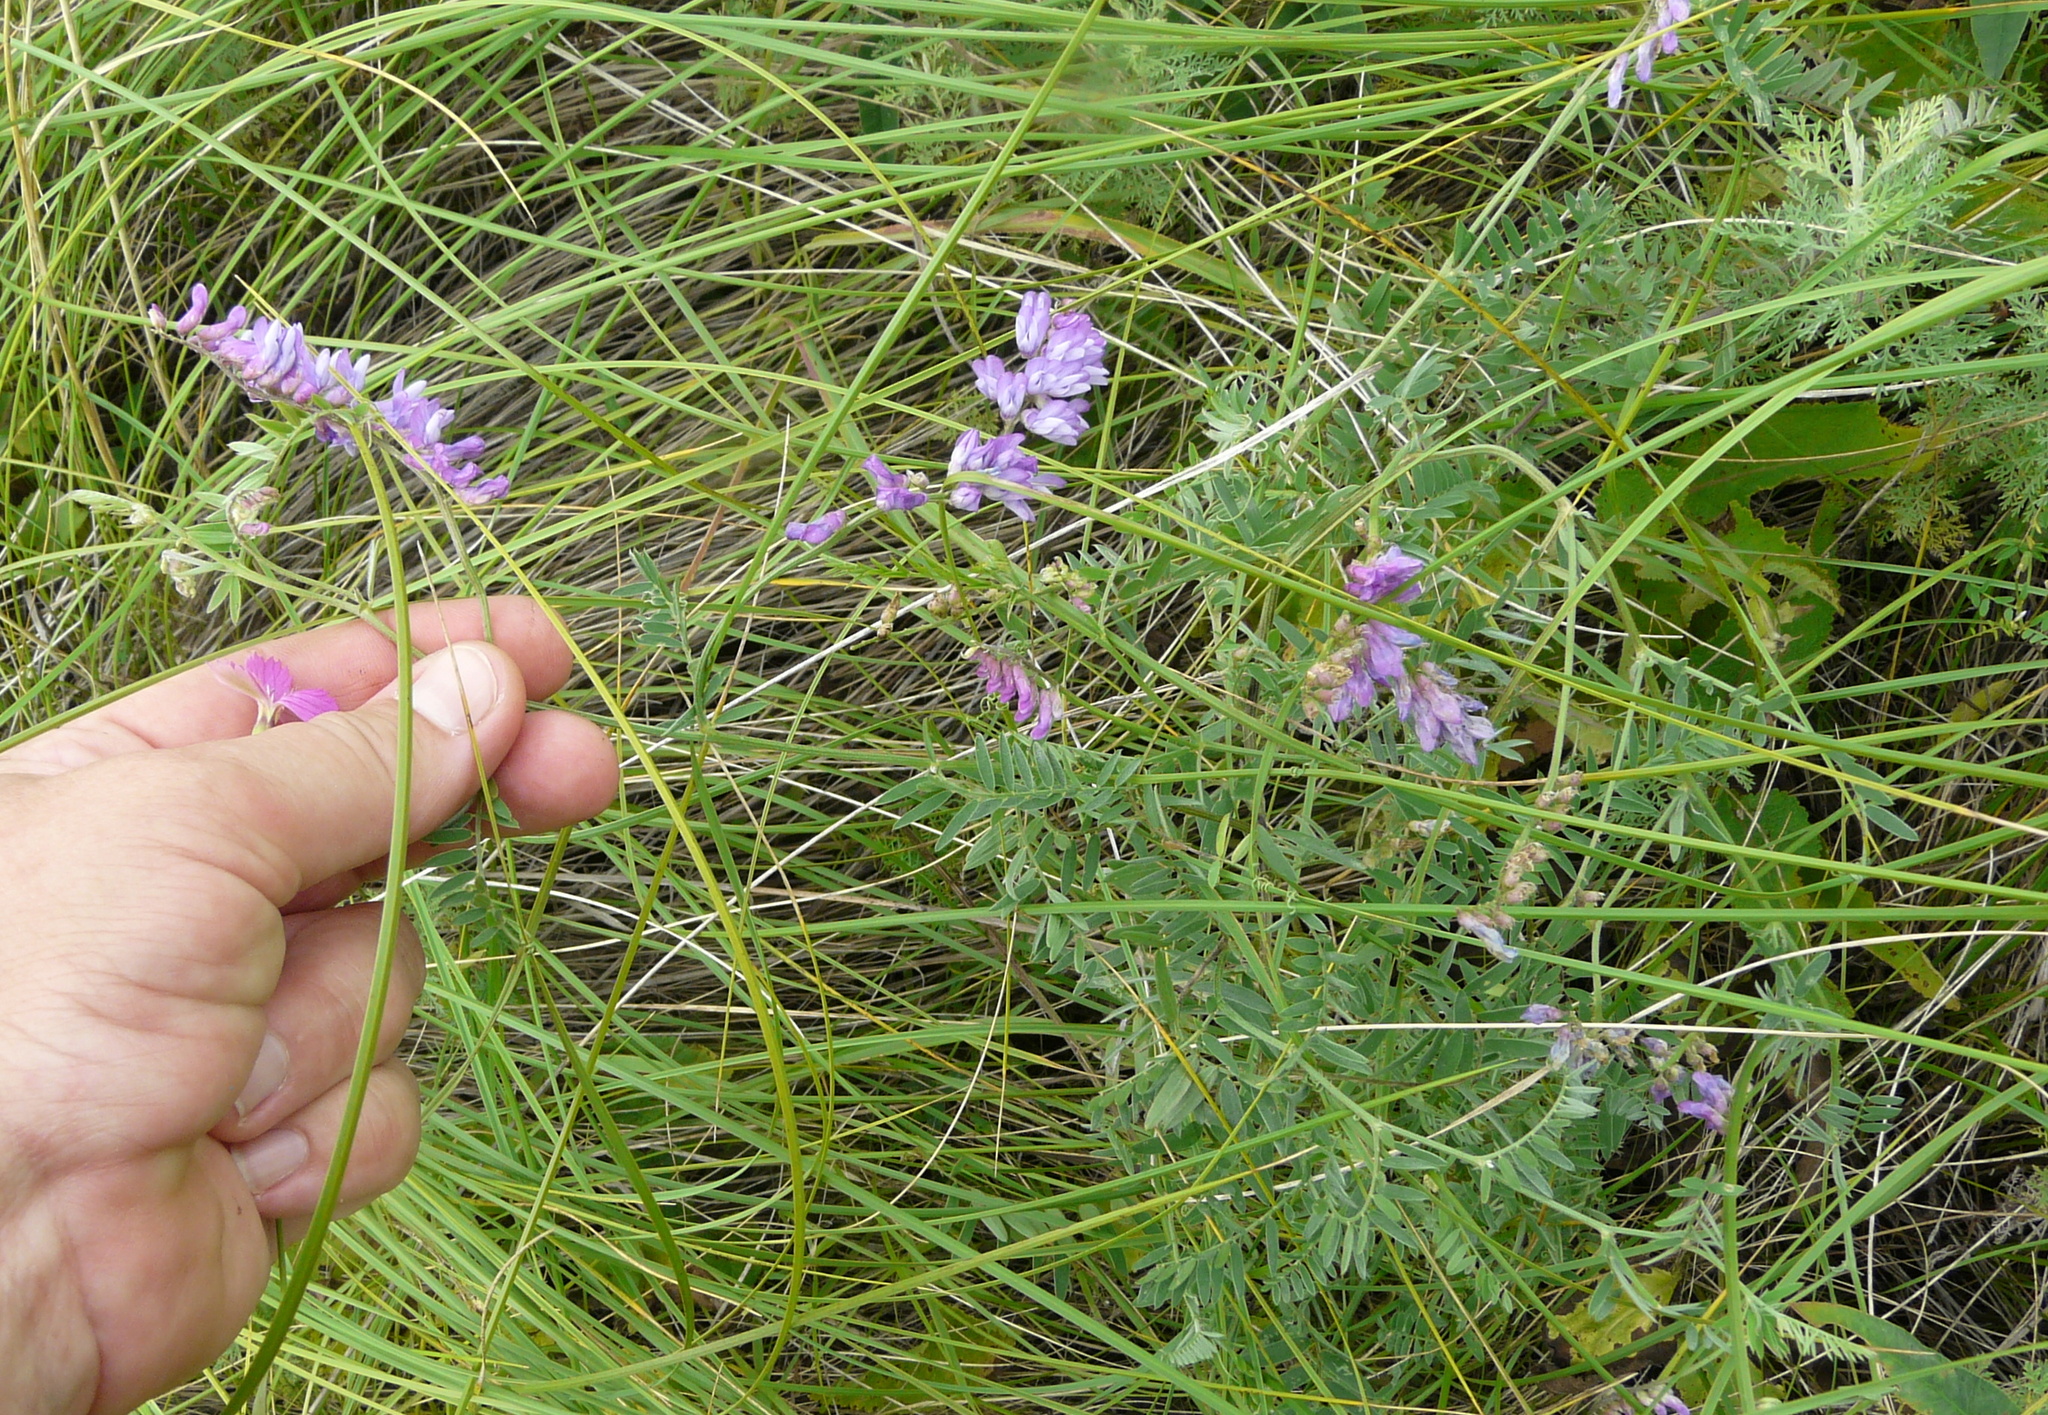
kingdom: Plantae
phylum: Tracheophyta
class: Magnoliopsida
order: Fabales
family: Fabaceae
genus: Vicia
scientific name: Vicia cracca
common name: Bird vetch
